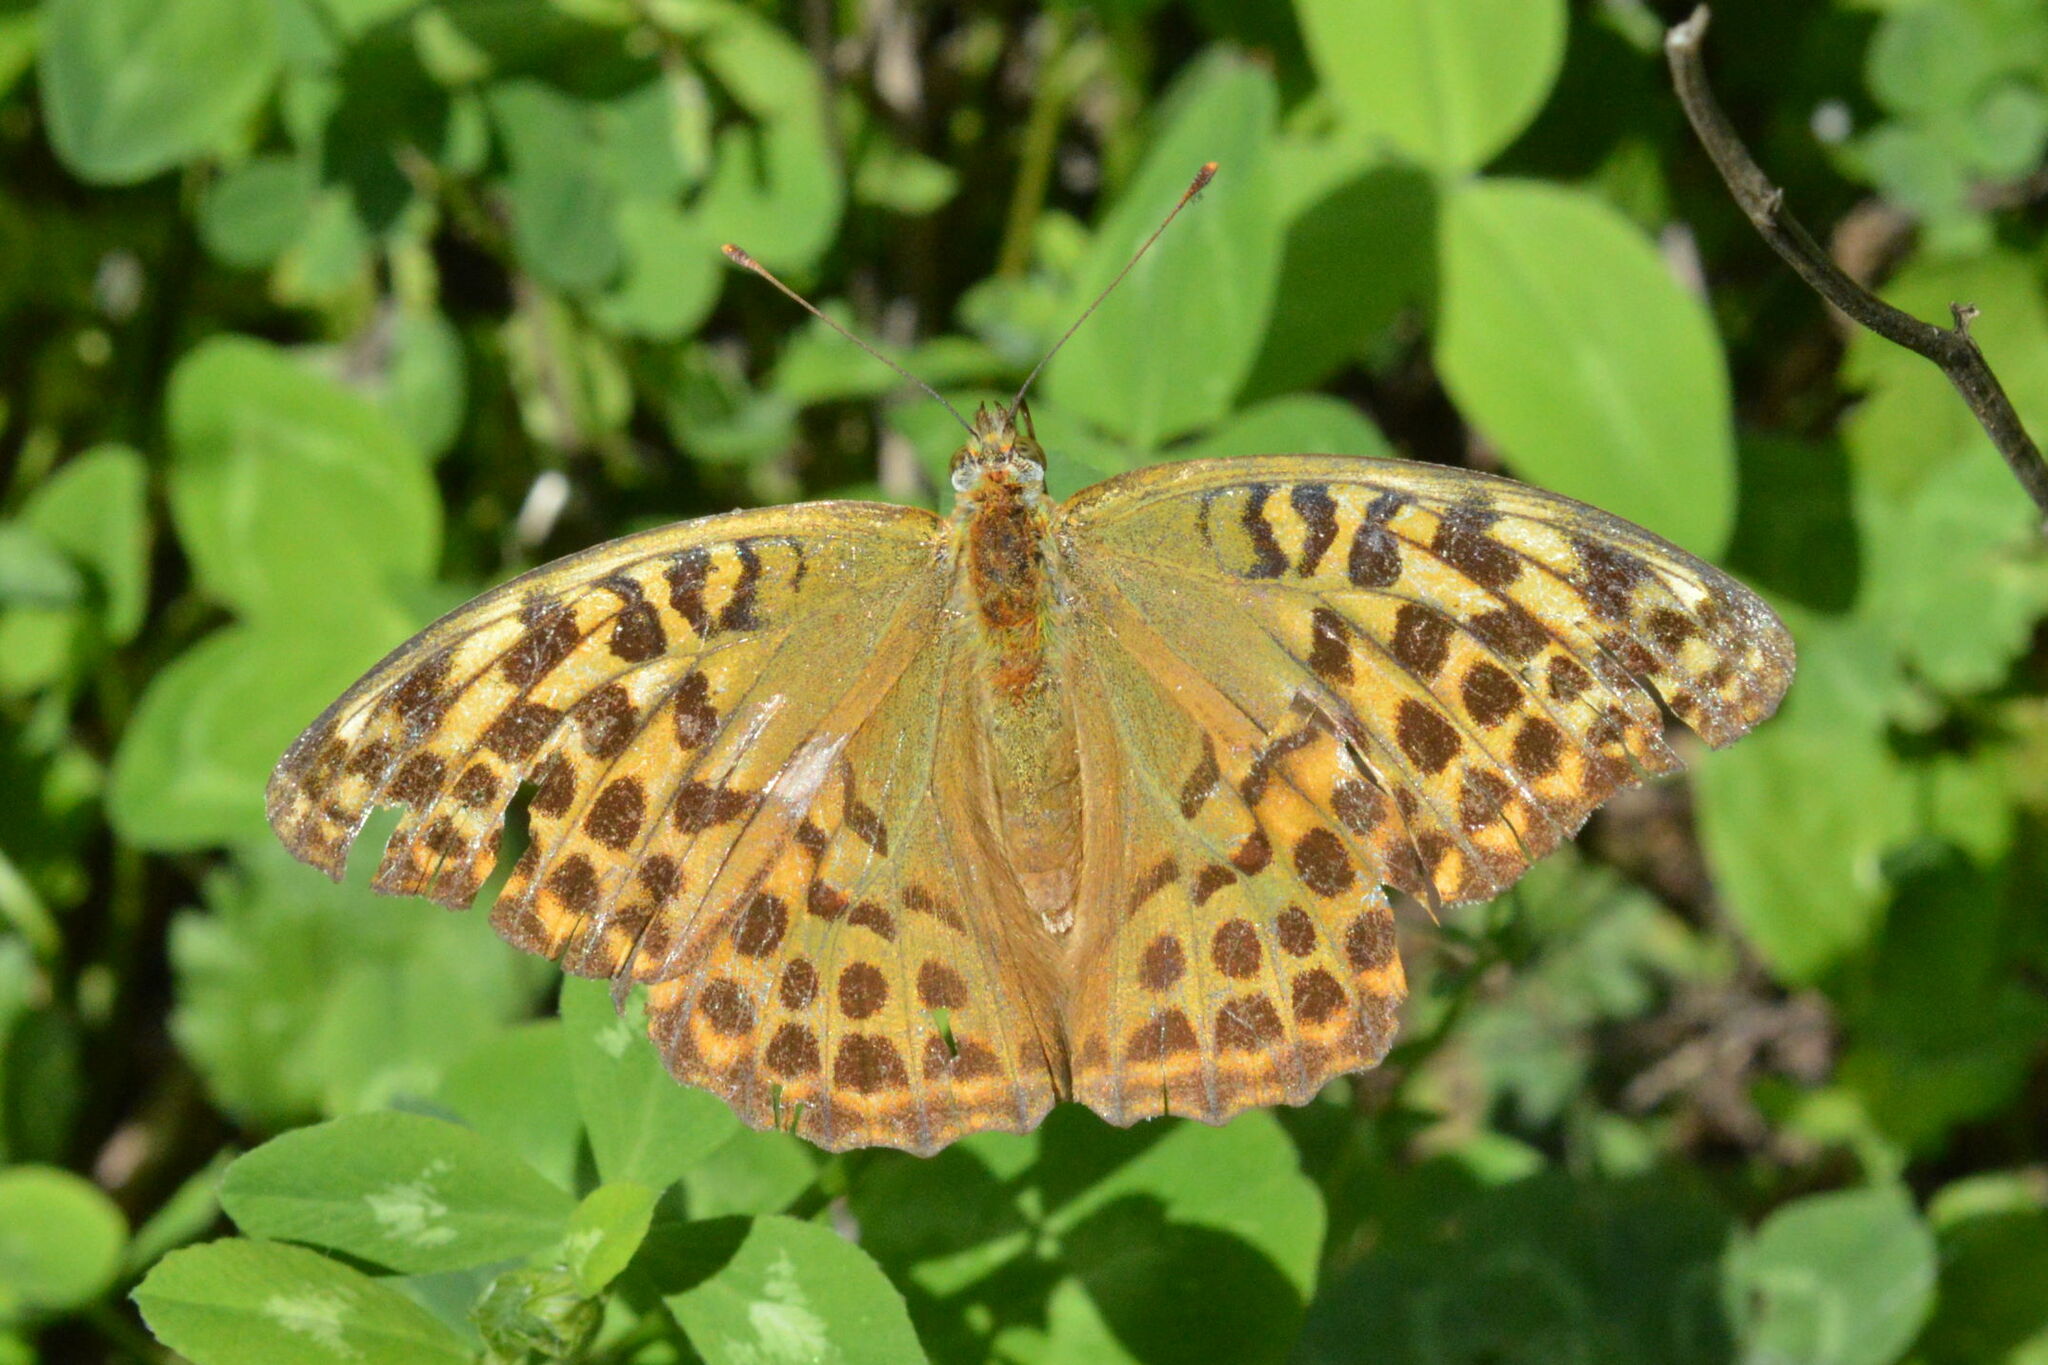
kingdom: Animalia
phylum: Arthropoda
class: Insecta
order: Lepidoptera
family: Nymphalidae
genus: Argynnis
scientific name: Argynnis paphia
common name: Silver-washed fritillary
